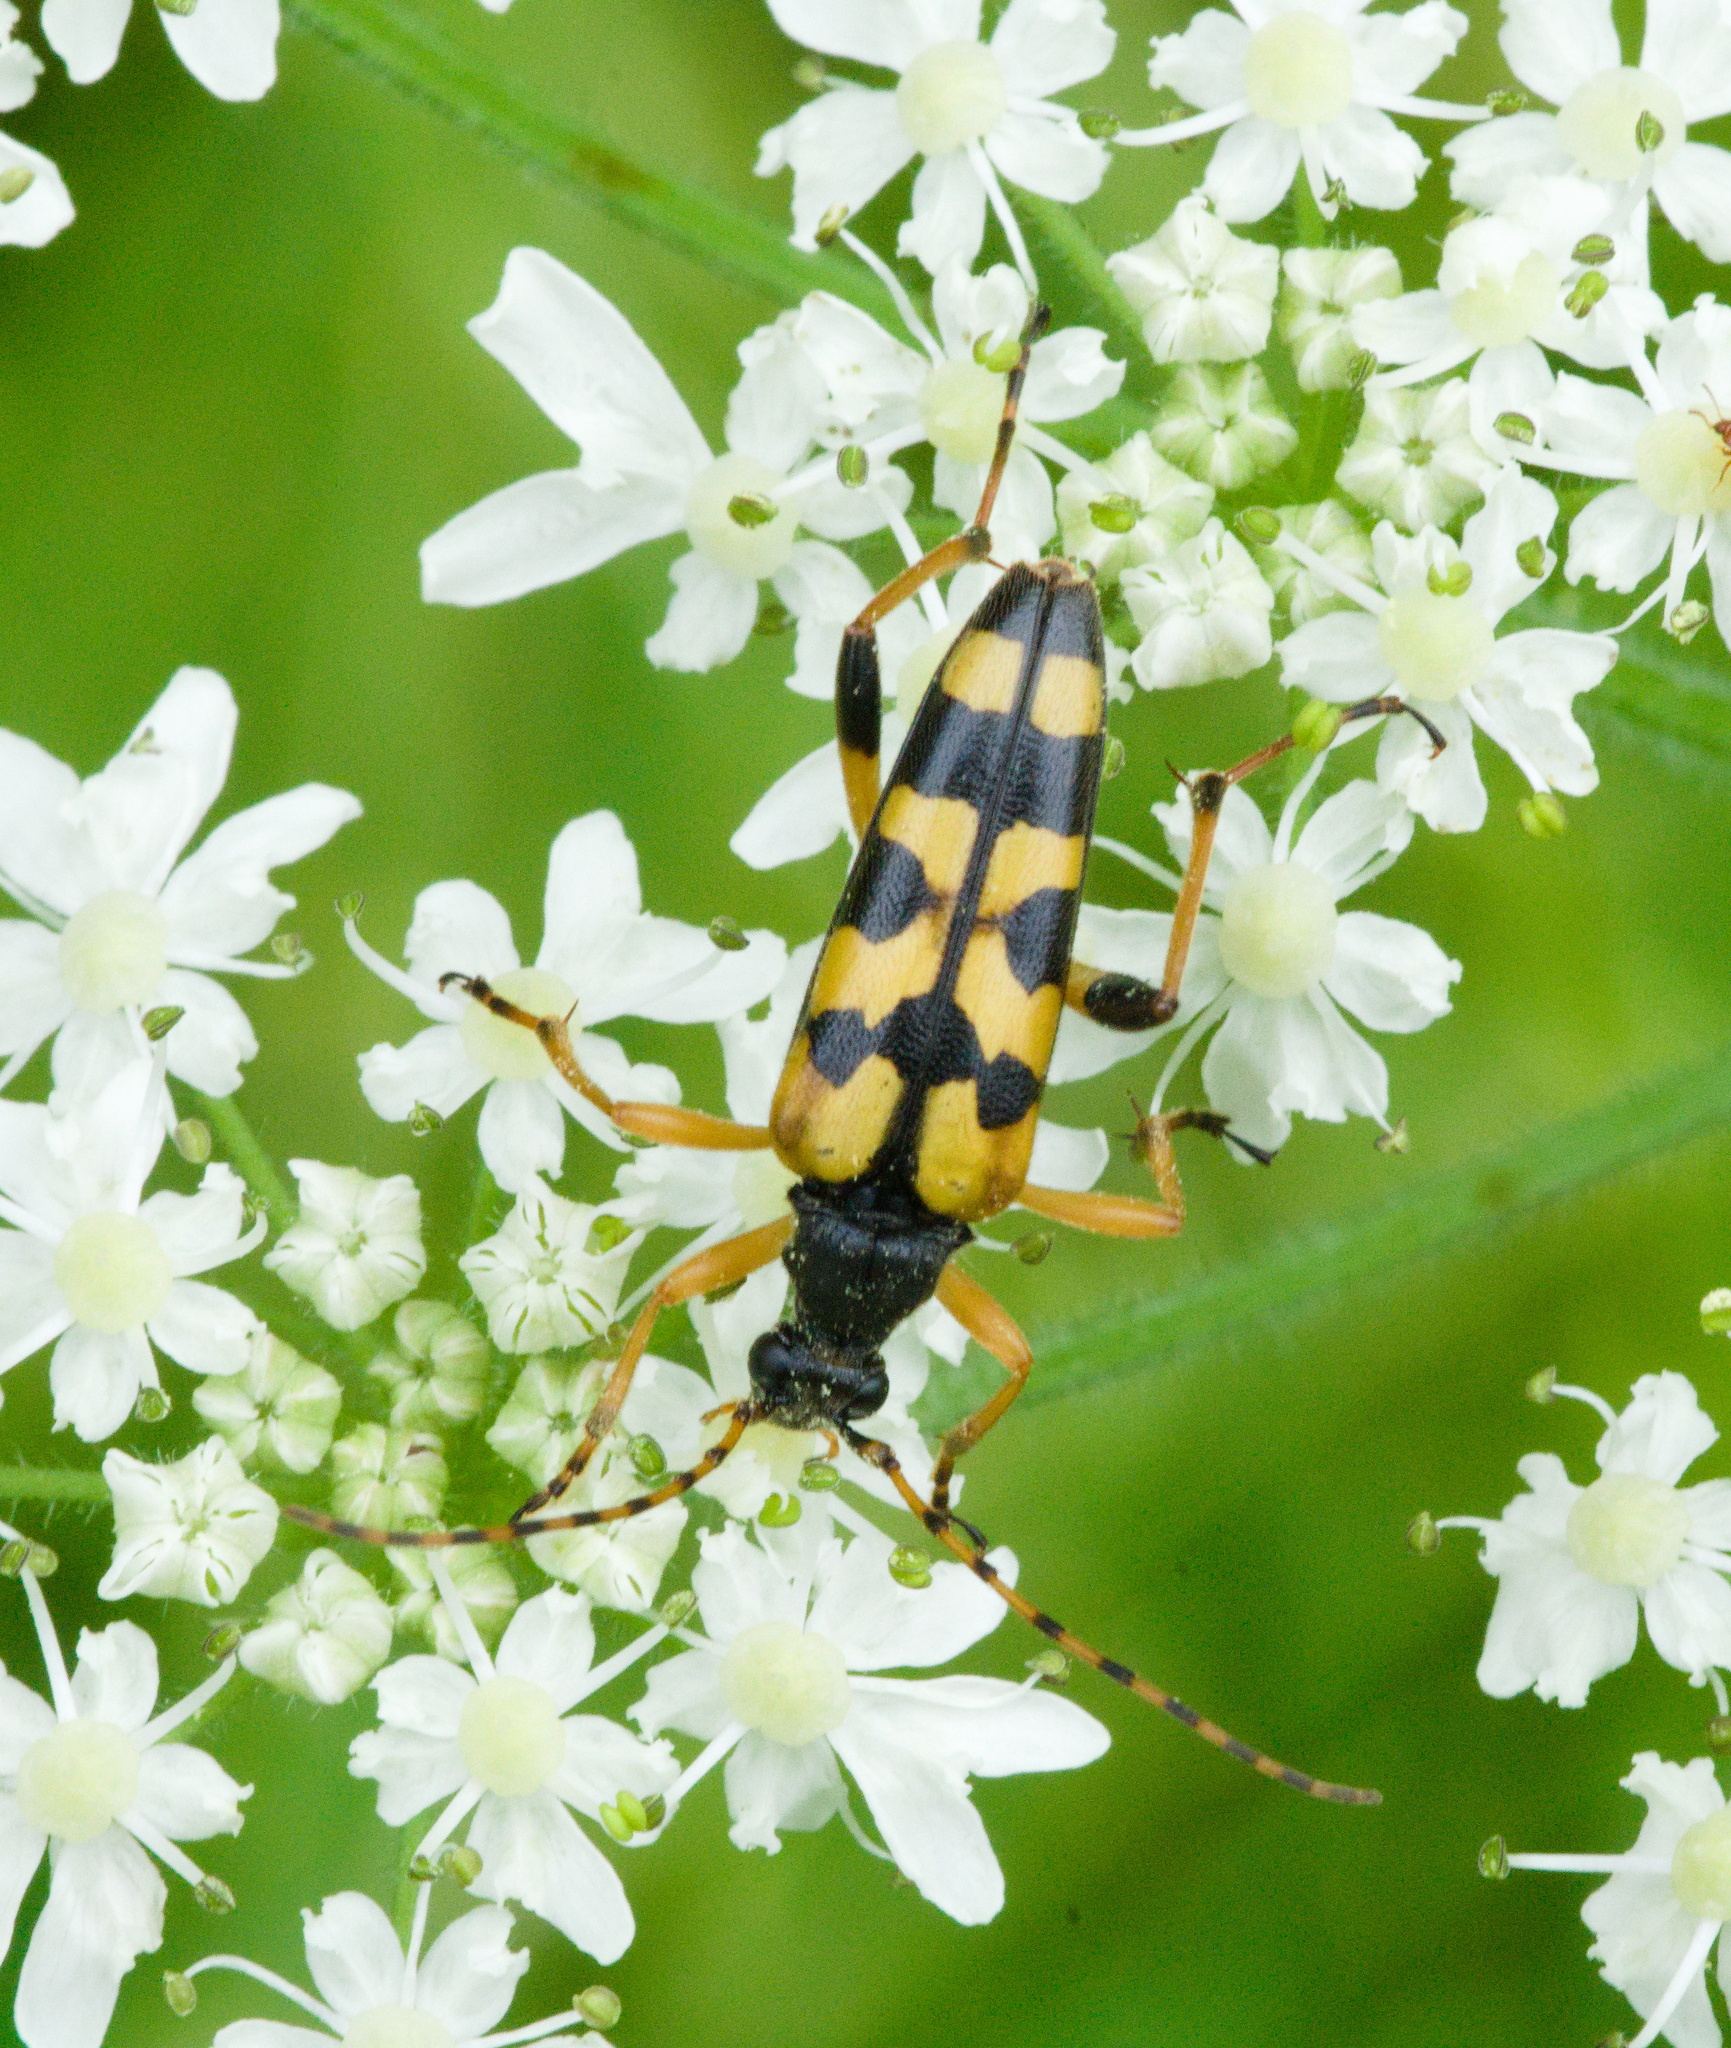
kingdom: Animalia
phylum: Arthropoda
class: Insecta
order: Coleoptera
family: Cerambycidae
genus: Rutpela
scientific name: Rutpela maculata
